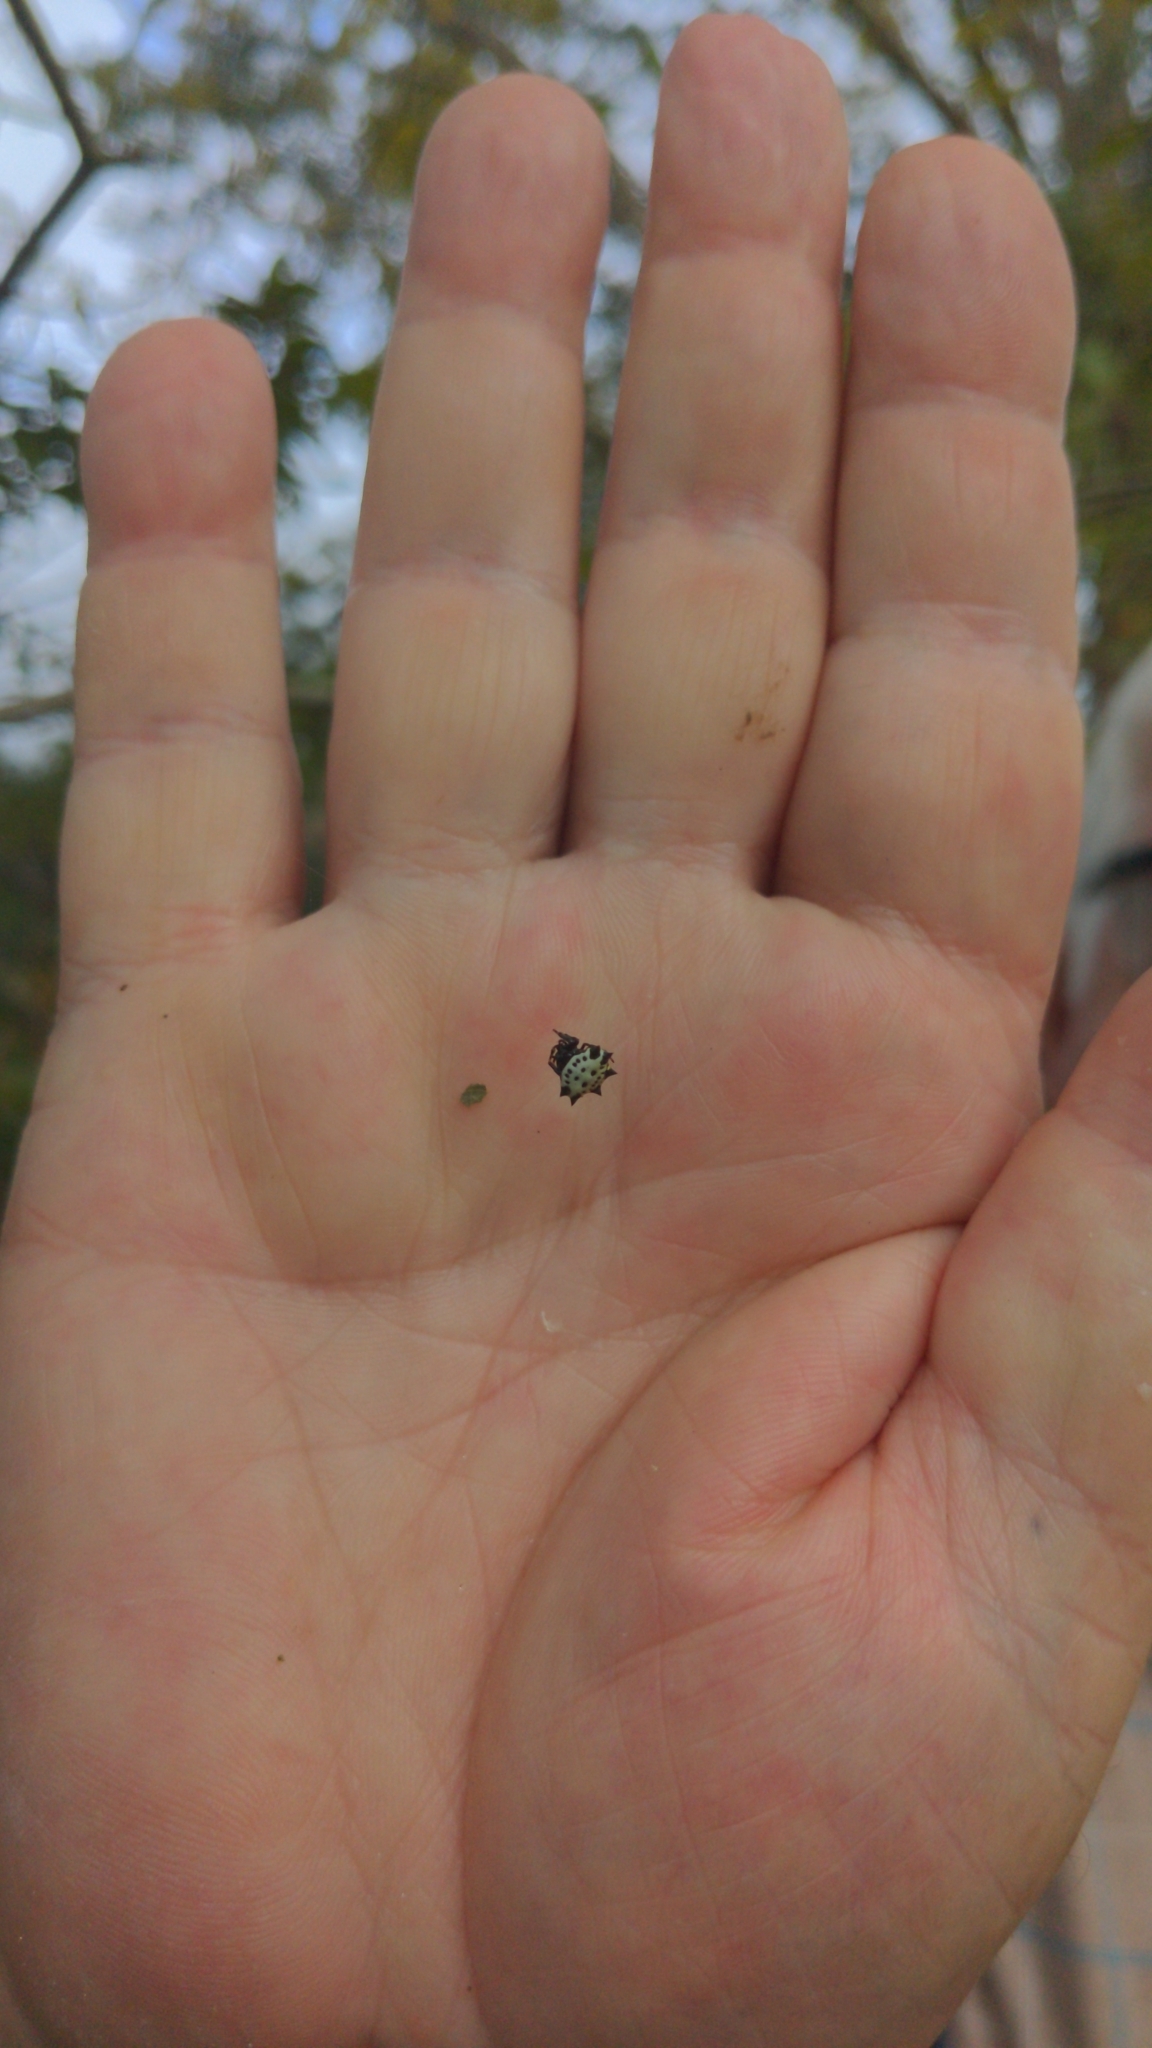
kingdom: Animalia
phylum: Arthropoda
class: Arachnida
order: Araneae
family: Araneidae
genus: Gasteracantha
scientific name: Gasteracantha cancriformis
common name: Orb weavers
